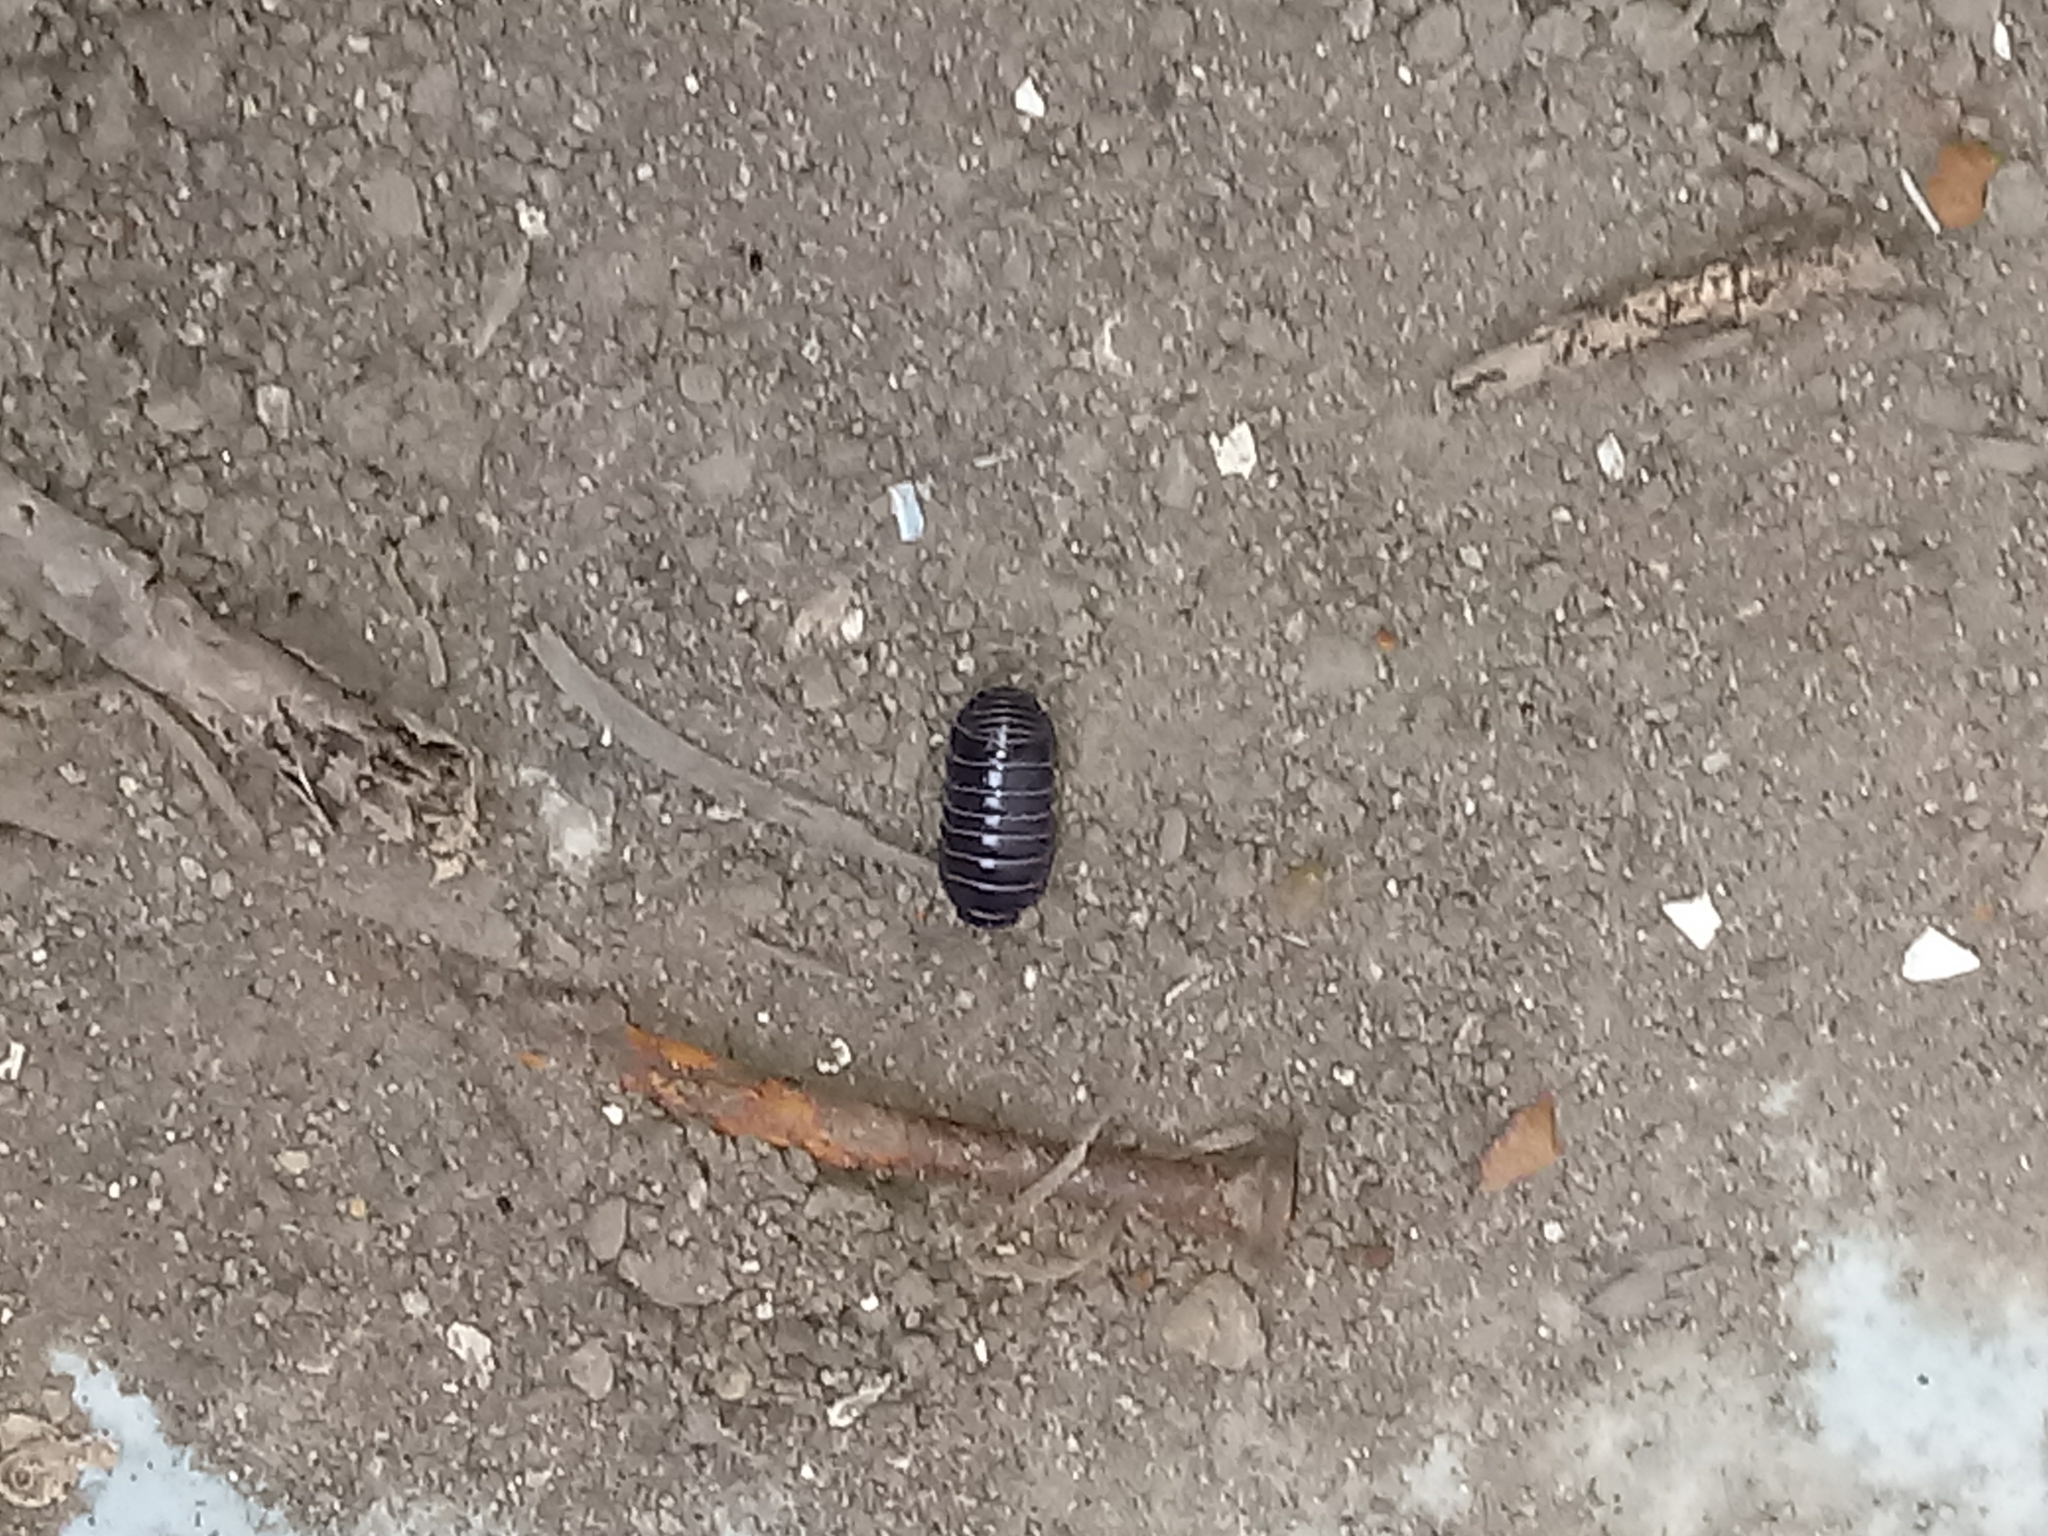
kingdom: Animalia
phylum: Arthropoda
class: Malacostraca
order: Isopoda
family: Armadillidiidae
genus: Armadillidium
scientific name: Armadillidium vulgare
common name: Common pill woodlouse
